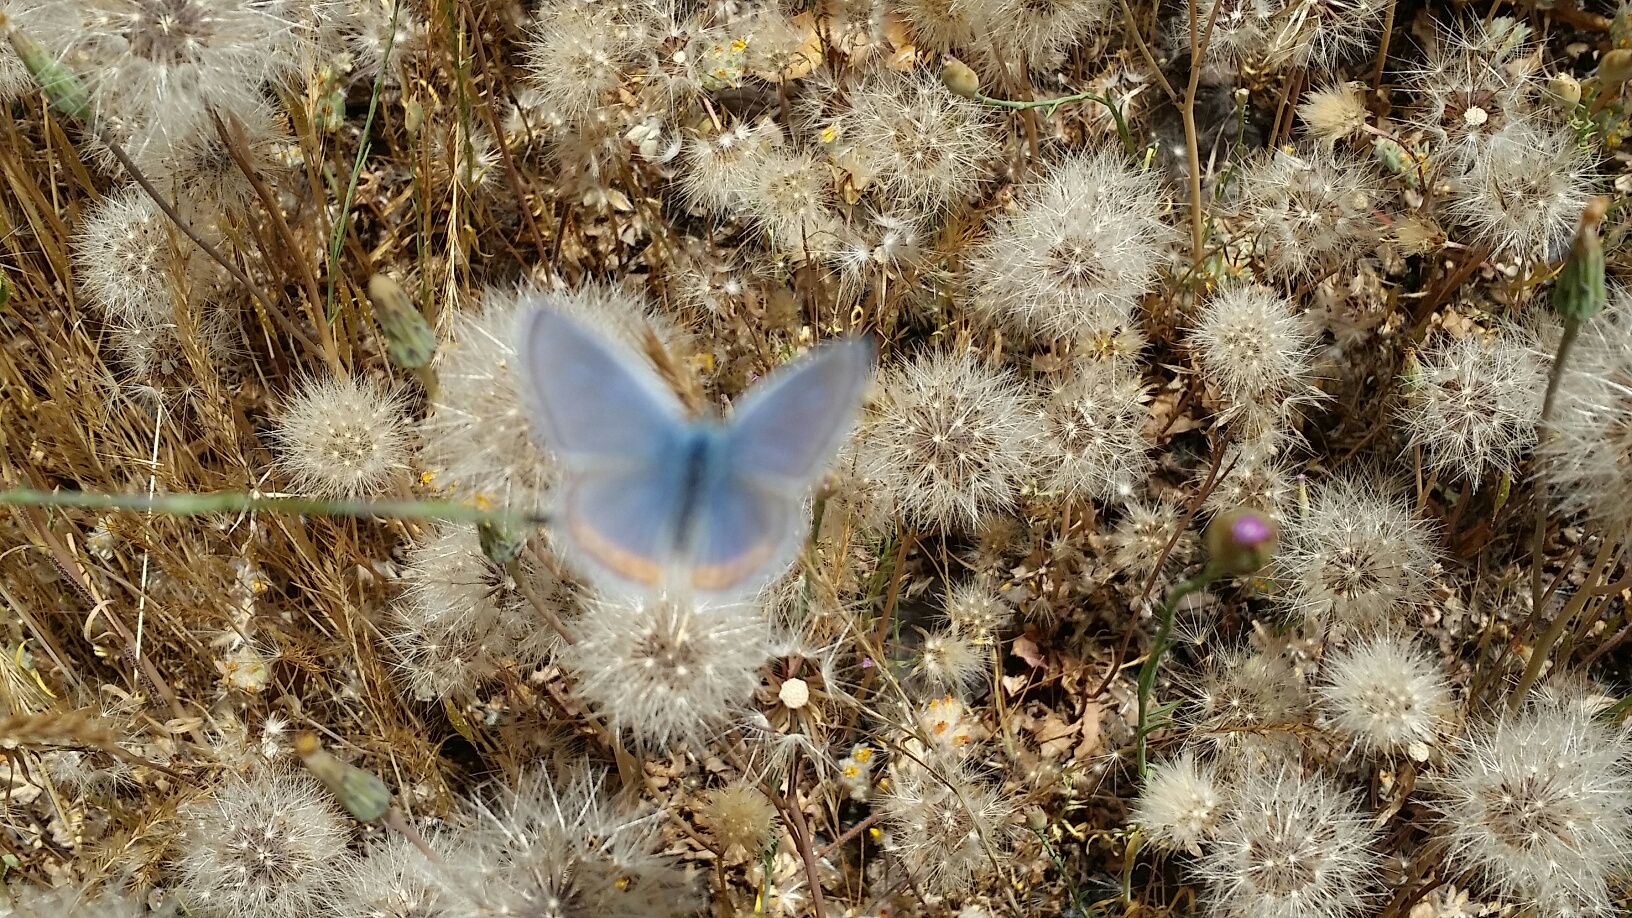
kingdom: Animalia
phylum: Arthropoda
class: Insecta
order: Lepidoptera
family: Lycaenidae
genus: Icaricia
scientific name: Icaricia acmon
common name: Acmon blue
